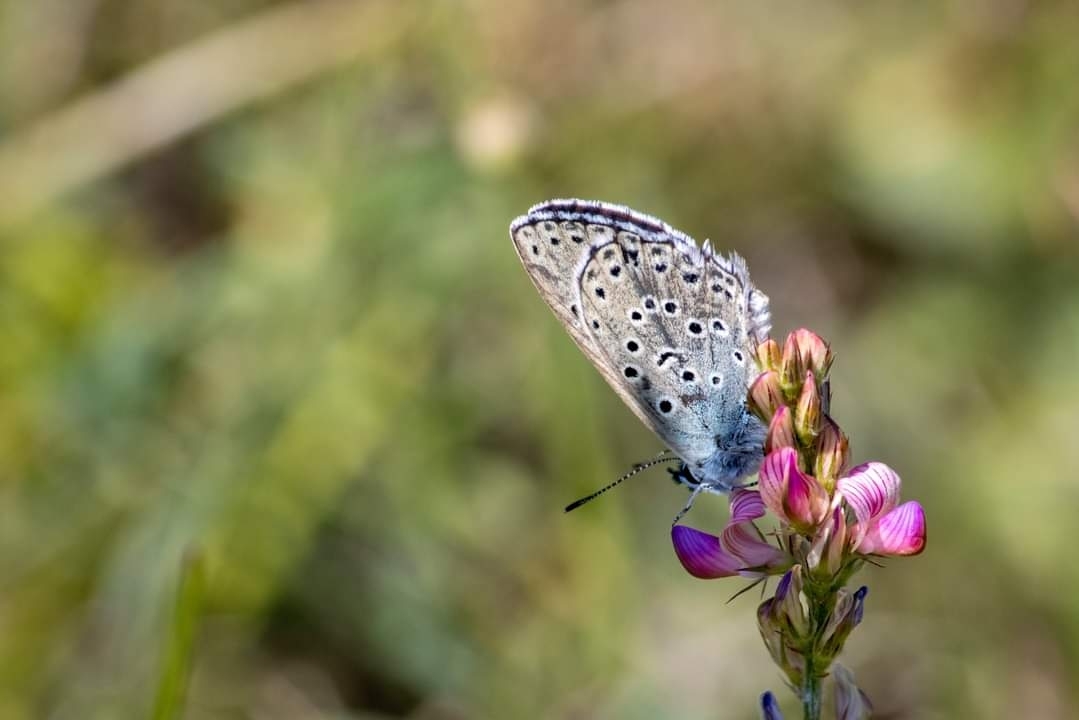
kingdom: Animalia
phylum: Arthropoda
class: Insecta
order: Lepidoptera
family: Lycaenidae
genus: Maculinea
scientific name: Maculinea arion
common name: Large blue
